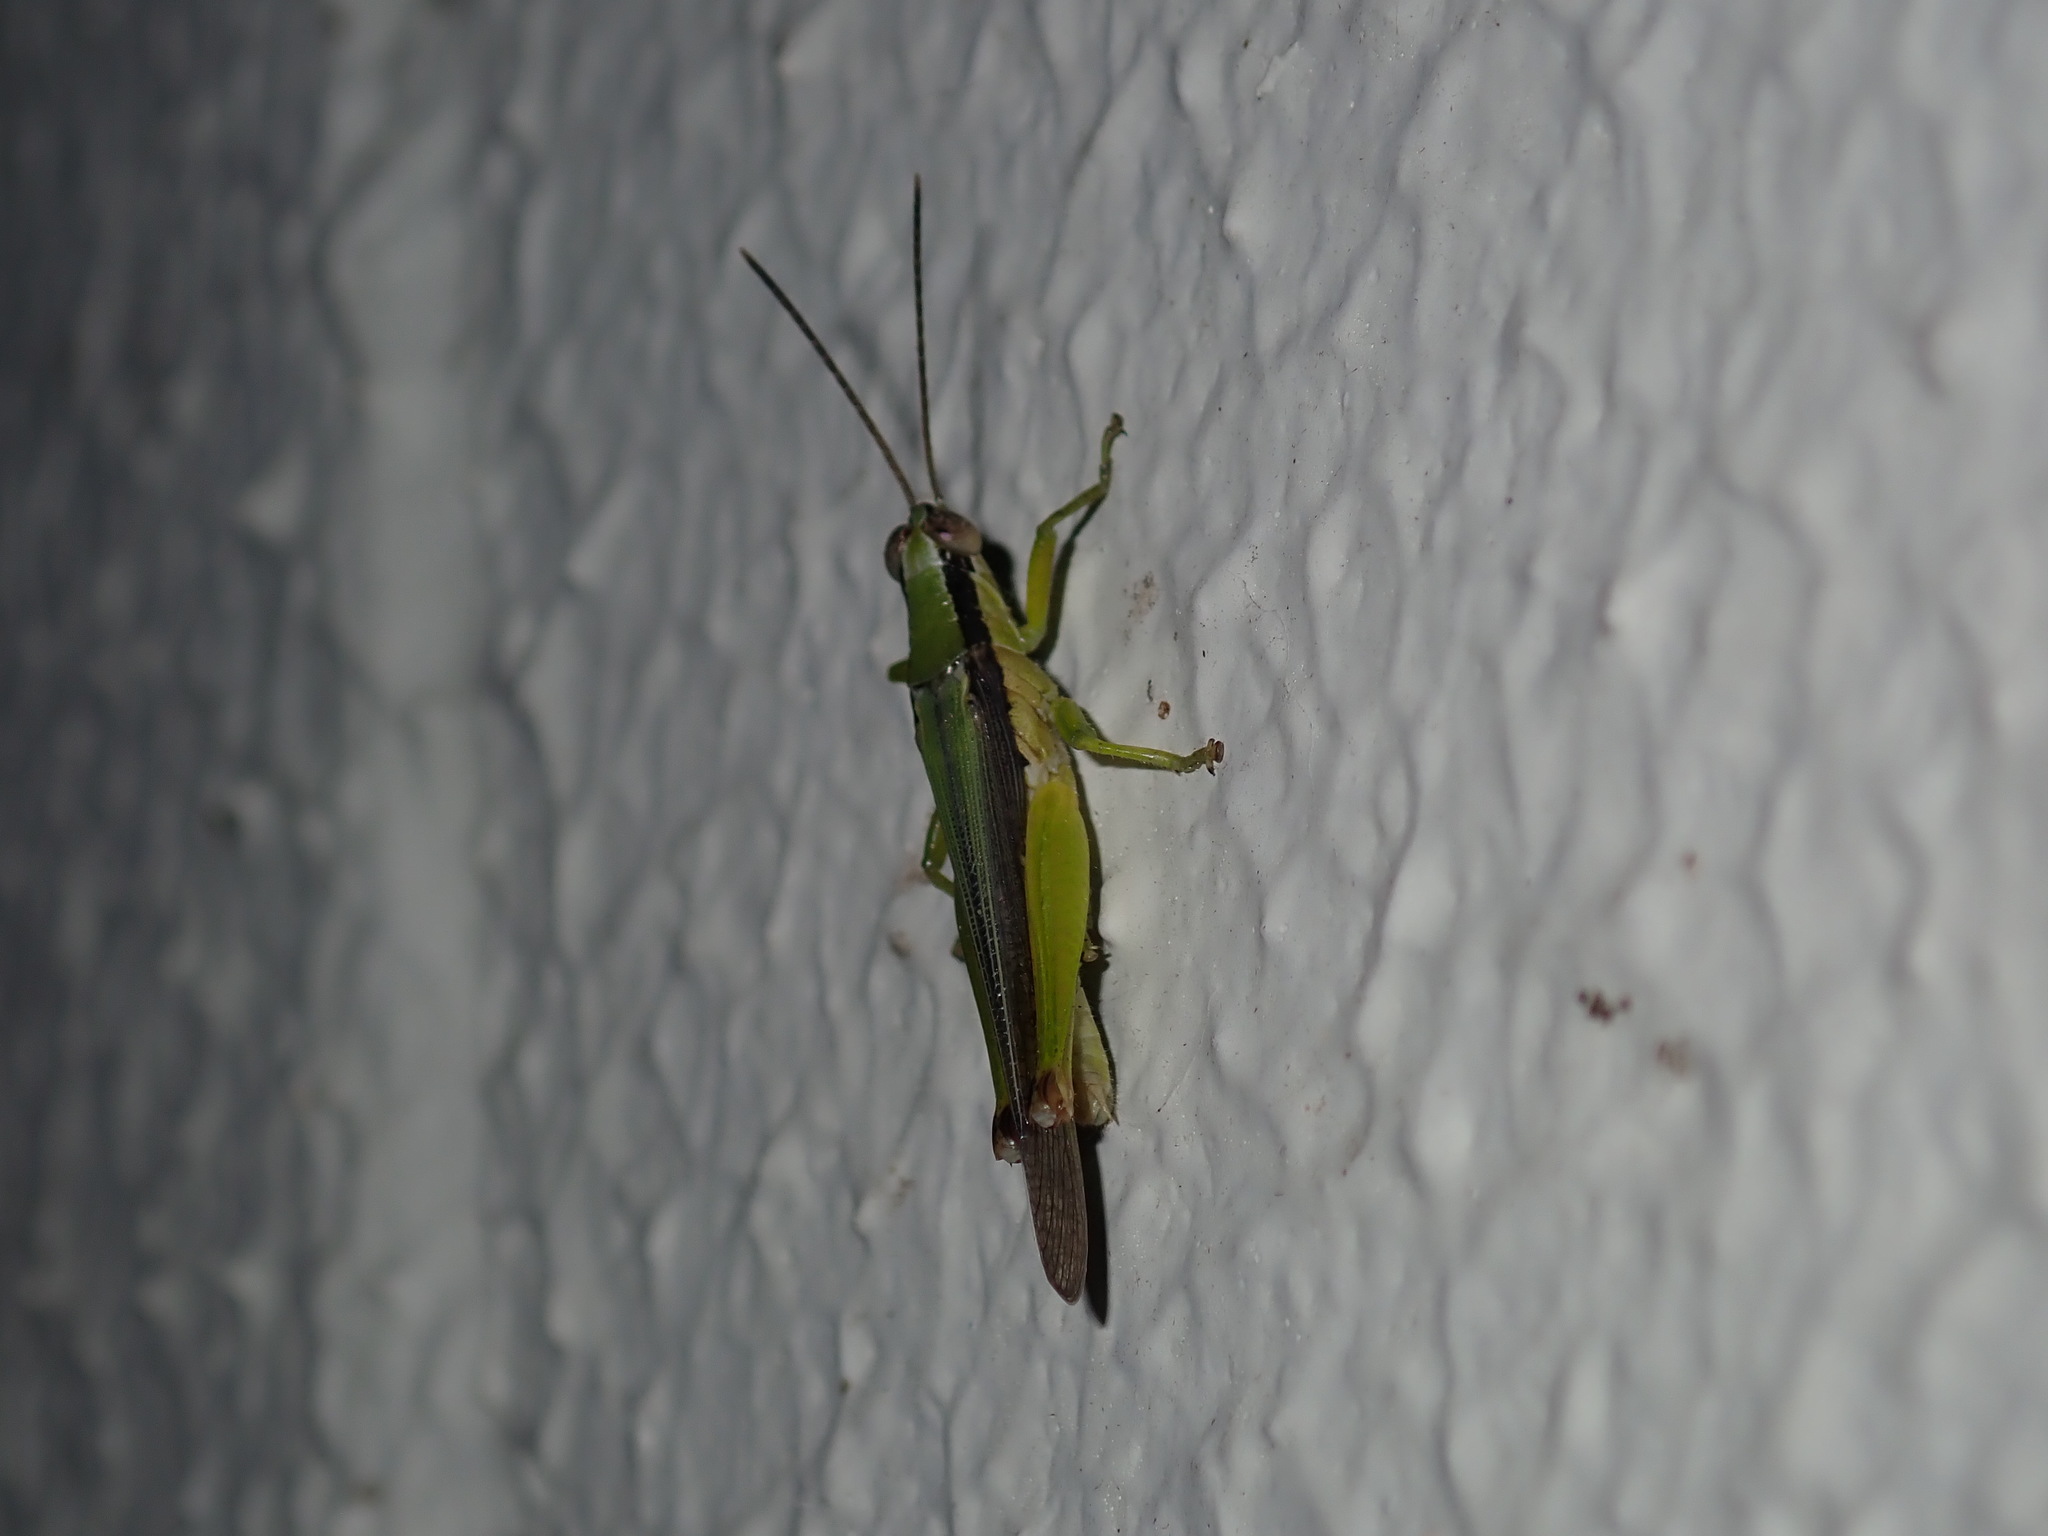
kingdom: Animalia
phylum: Arthropoda
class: Insecta
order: Orthoptera
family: Acrididae
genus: Gesonula
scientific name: Gesonula mundata
